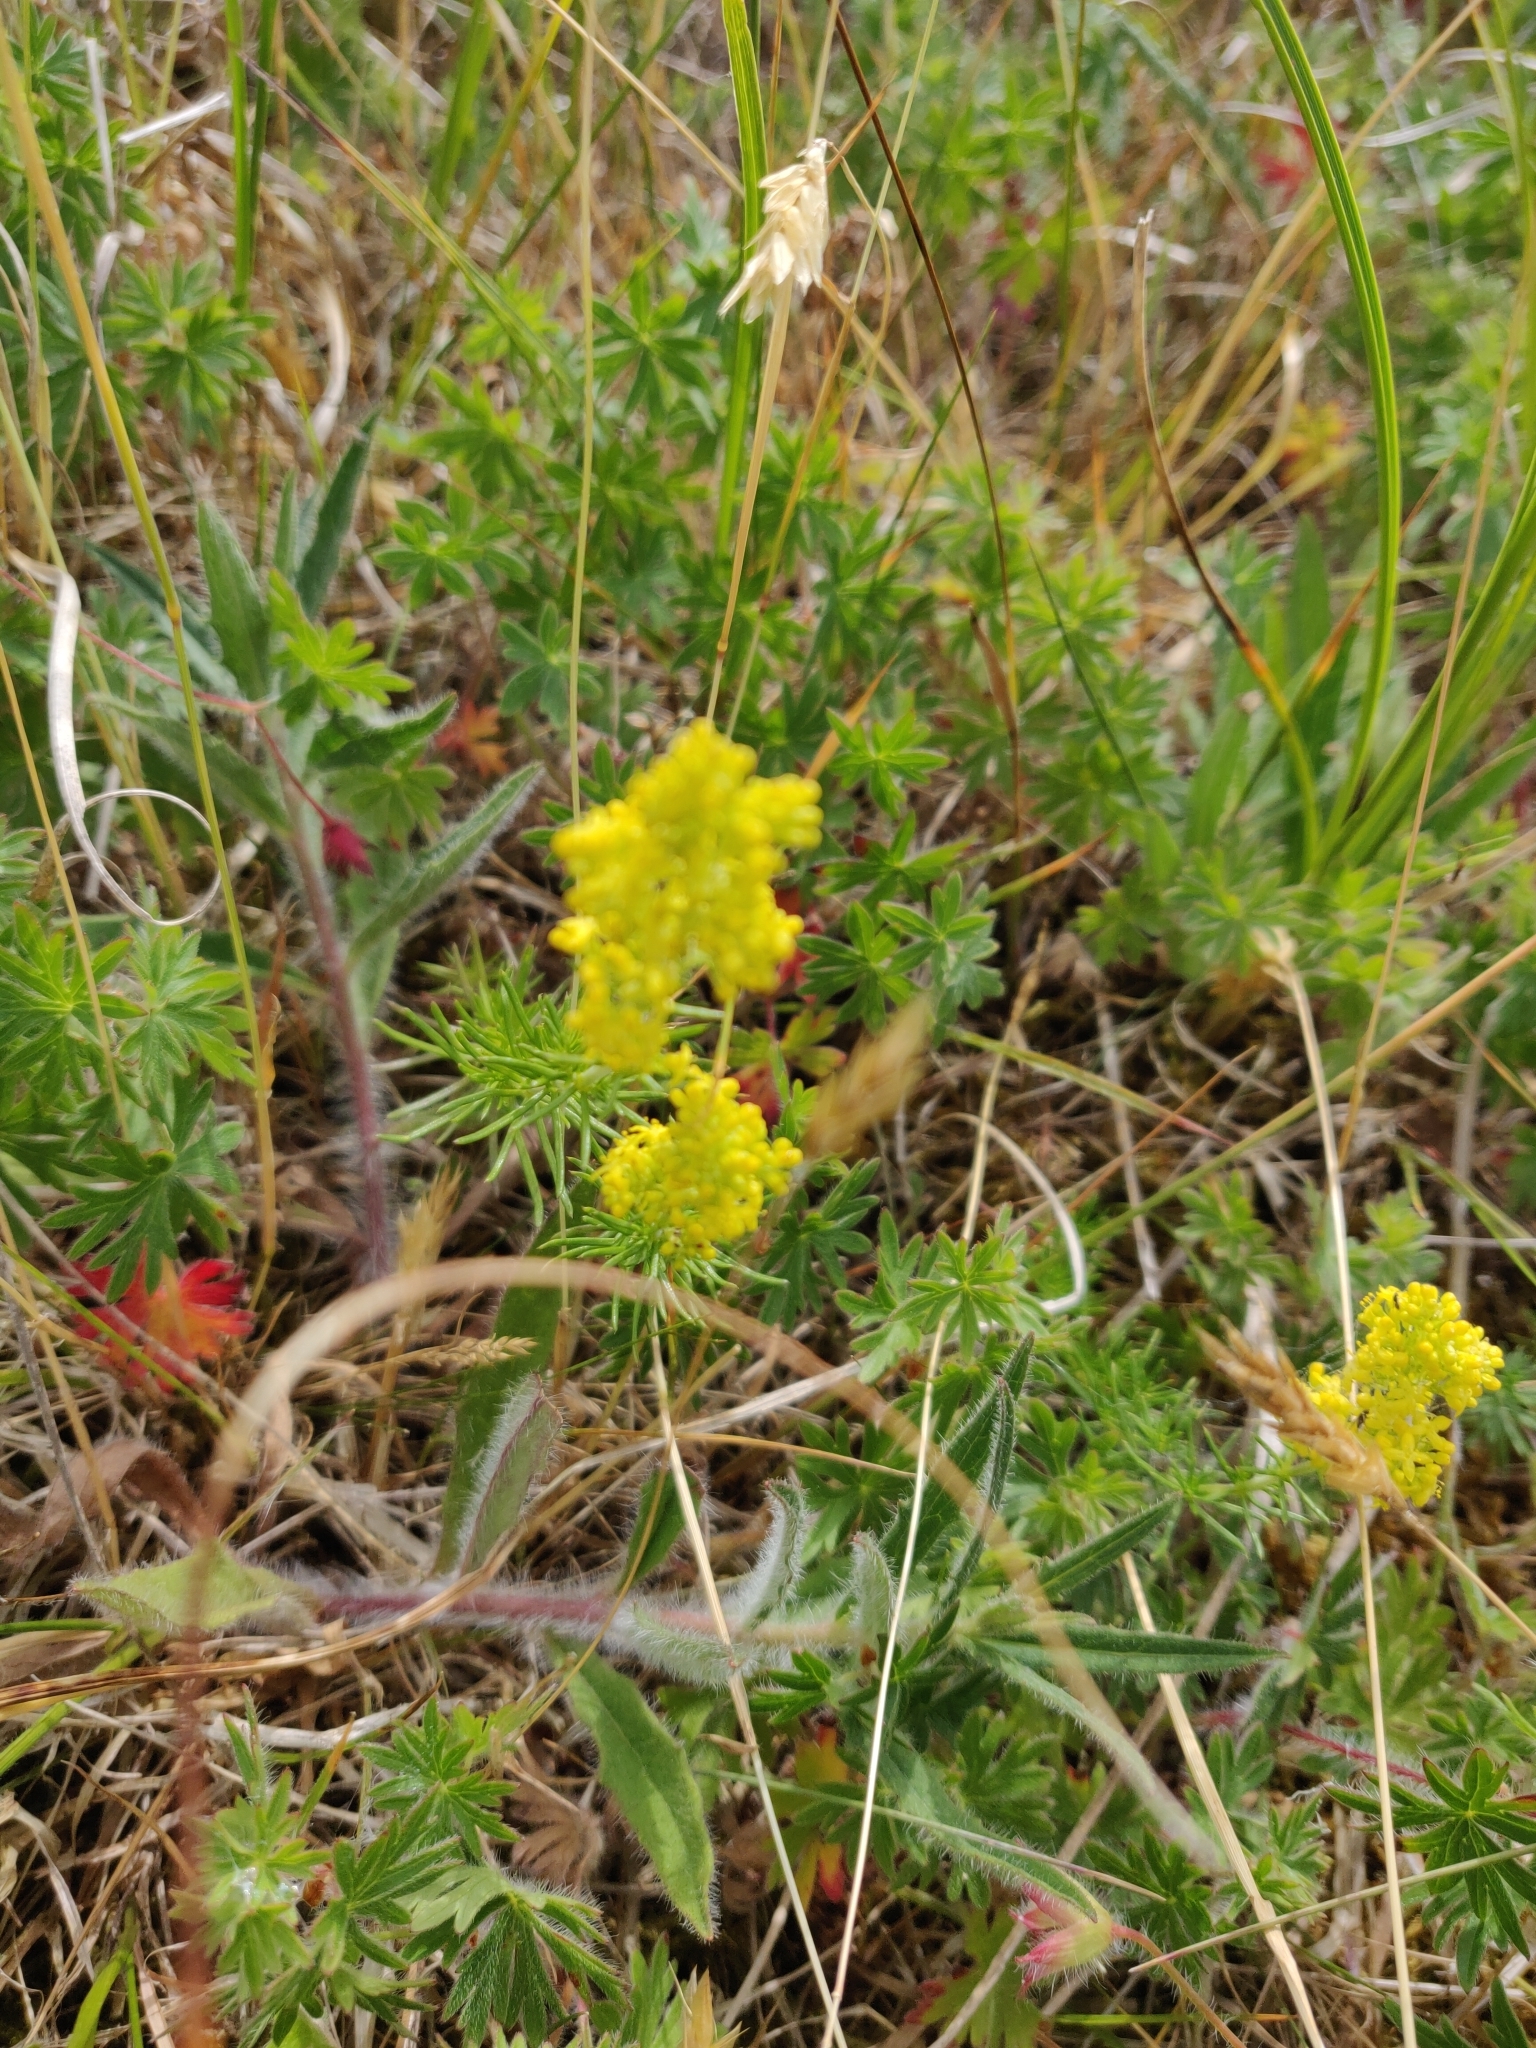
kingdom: Plantae
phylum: Tracheophyta
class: Magnoliopsida
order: Gentianales
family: Rubiaceae
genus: Galium
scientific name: Galium verum
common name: Lady's bedstraw
